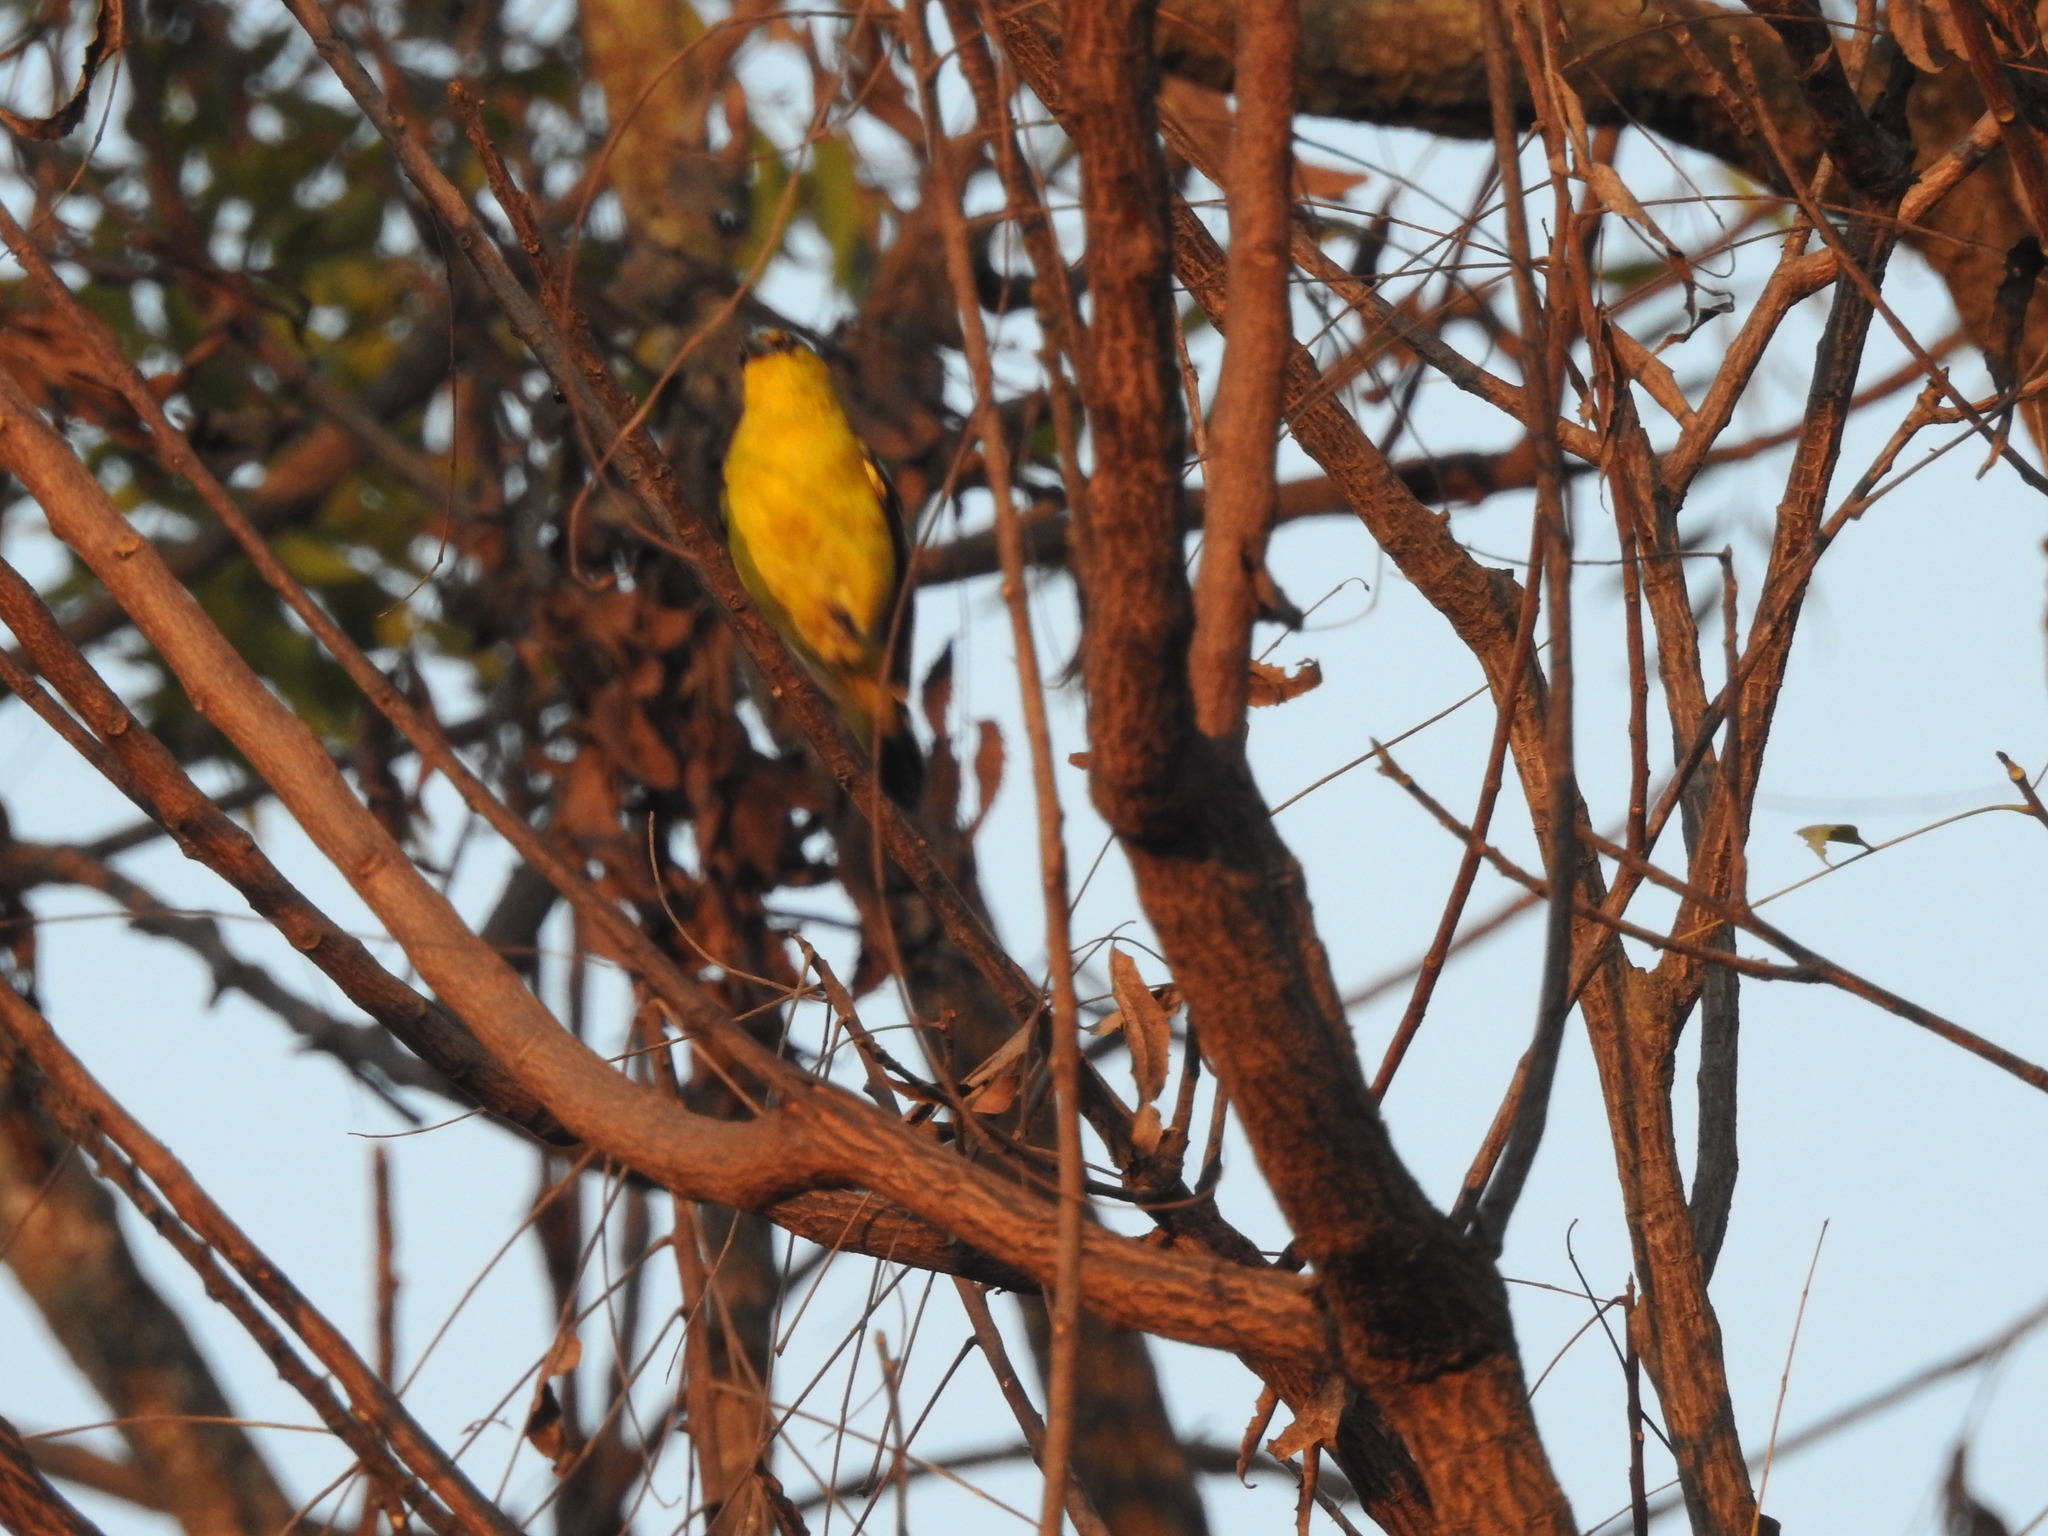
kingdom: Animalia
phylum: Chordata
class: Aves
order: Passeriformes
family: Aegithinidae
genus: Aegithina
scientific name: Aegithina tiphia
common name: Common iora
